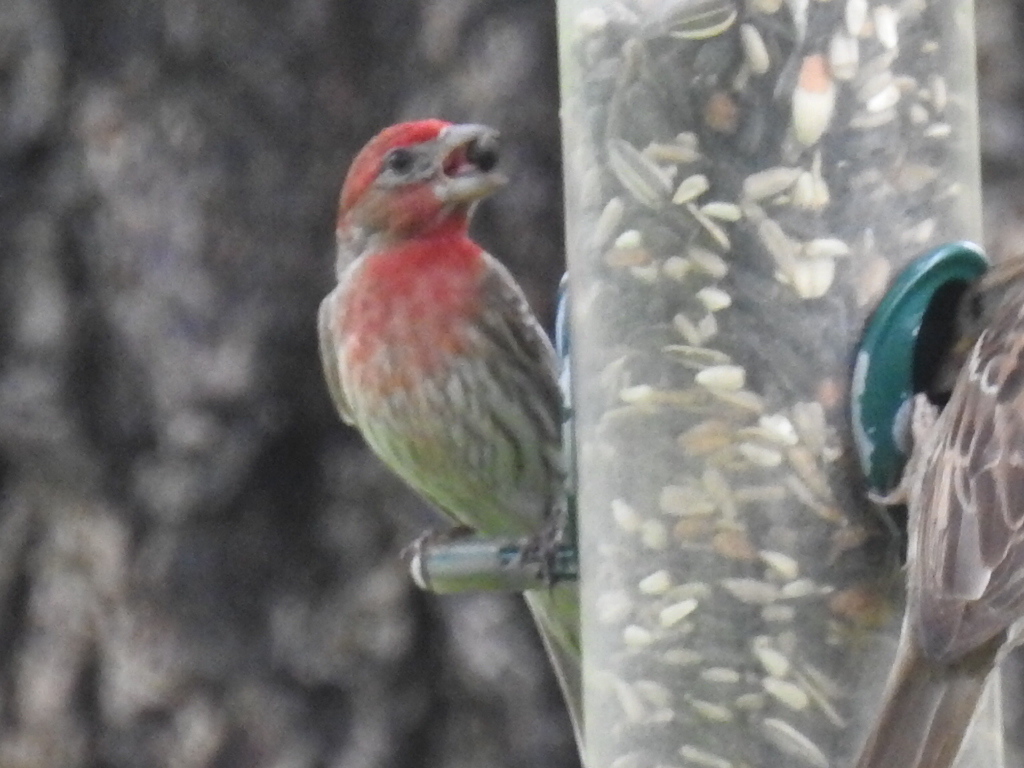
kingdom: Animalia
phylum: Chordata
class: Aves
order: Passeriformes
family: Fringillidae
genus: Haemorhous
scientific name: Haemorhous mexicanus
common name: House finch
